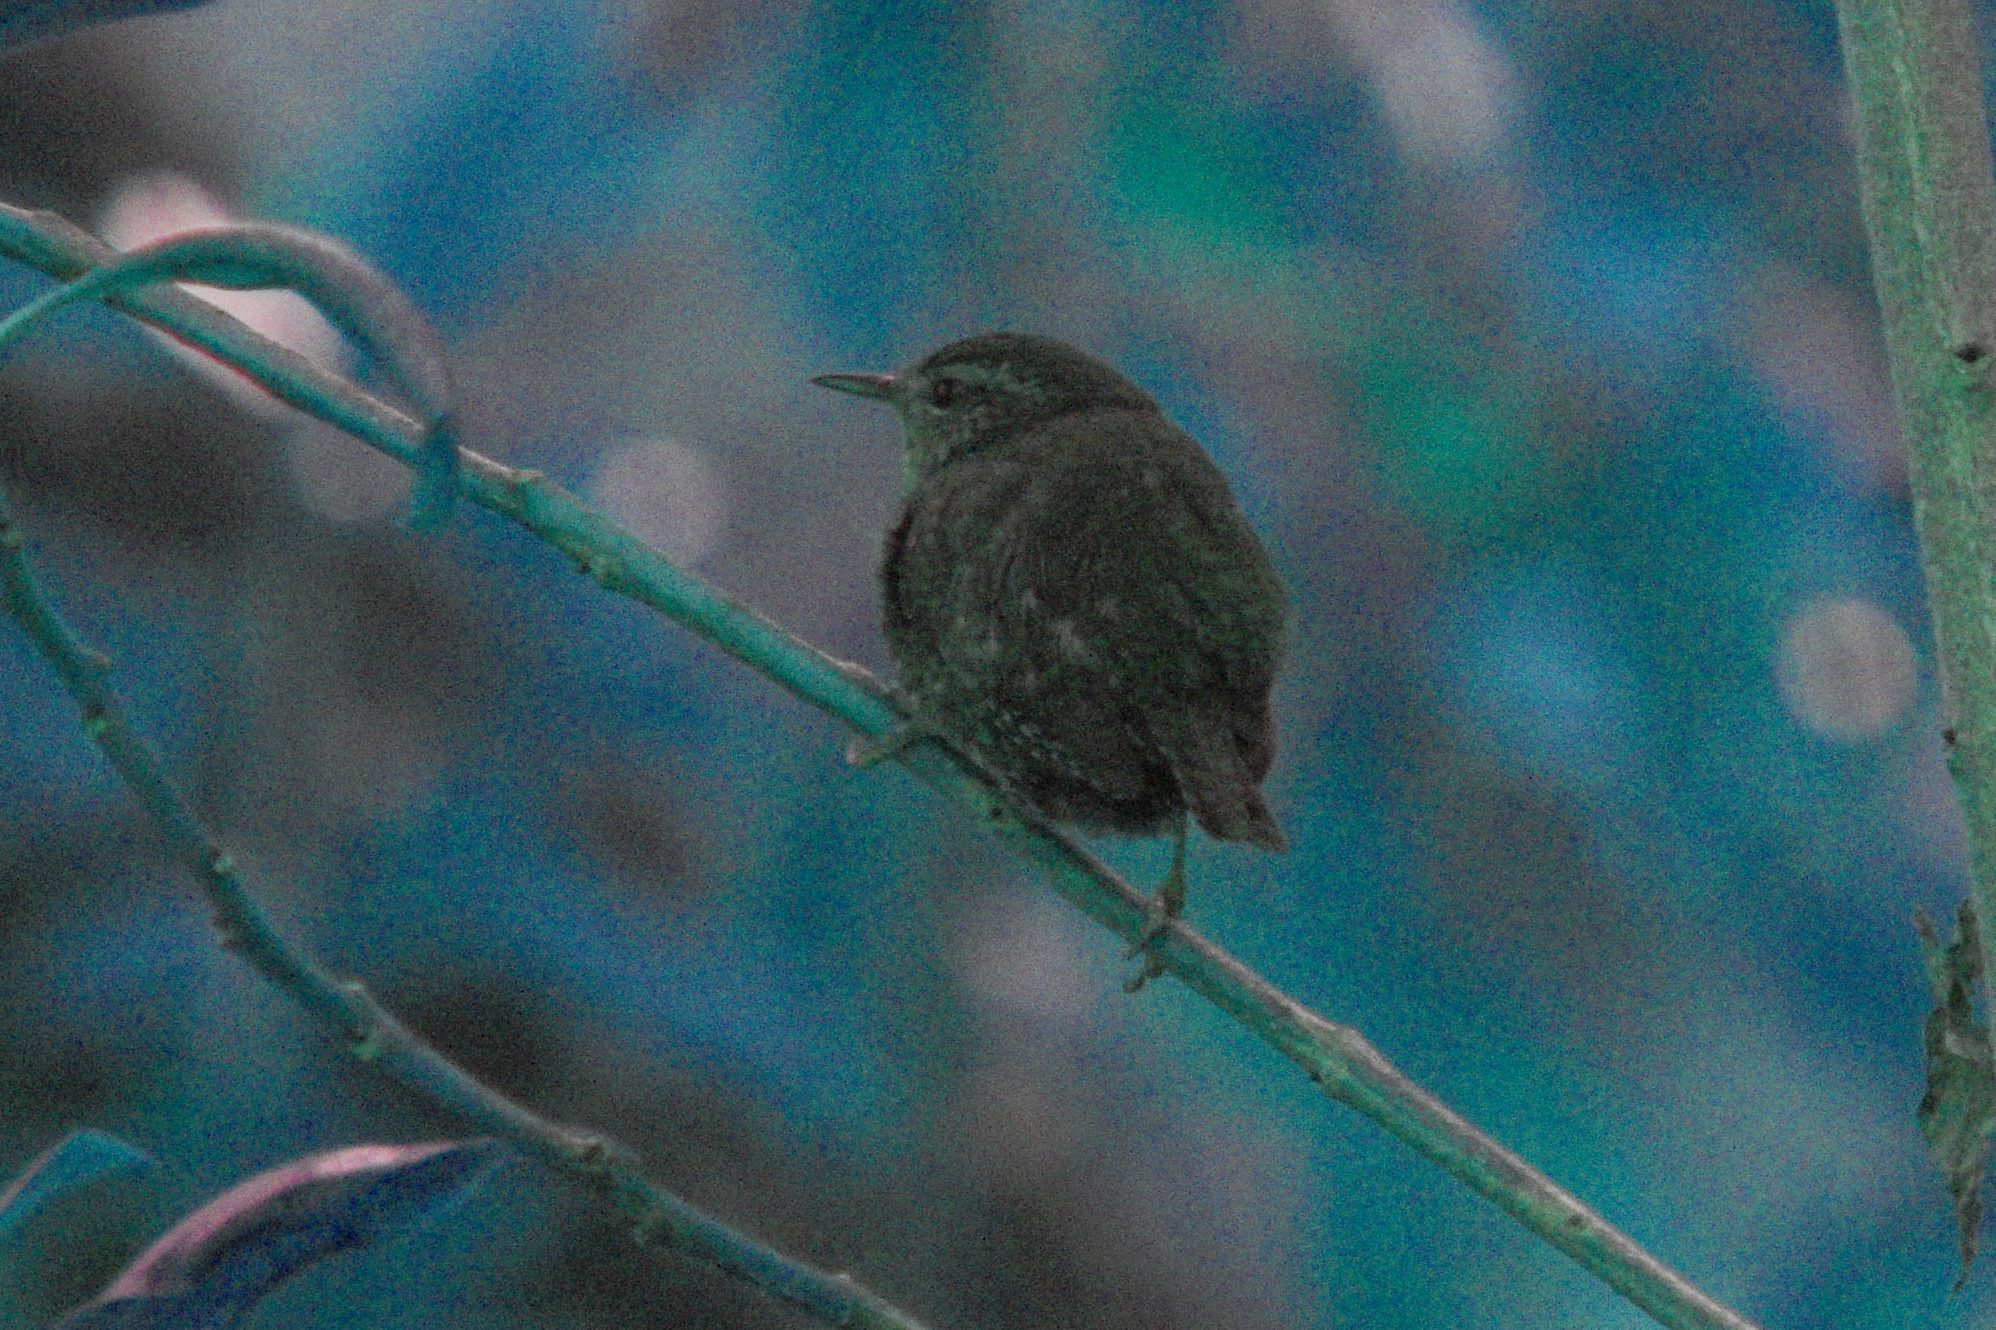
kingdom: Animalia
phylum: Chordata
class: Aves
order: Passeriformes
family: Troglodytidae
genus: Troglodytes
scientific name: Troglodytes pacificus
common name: Pacific wren
